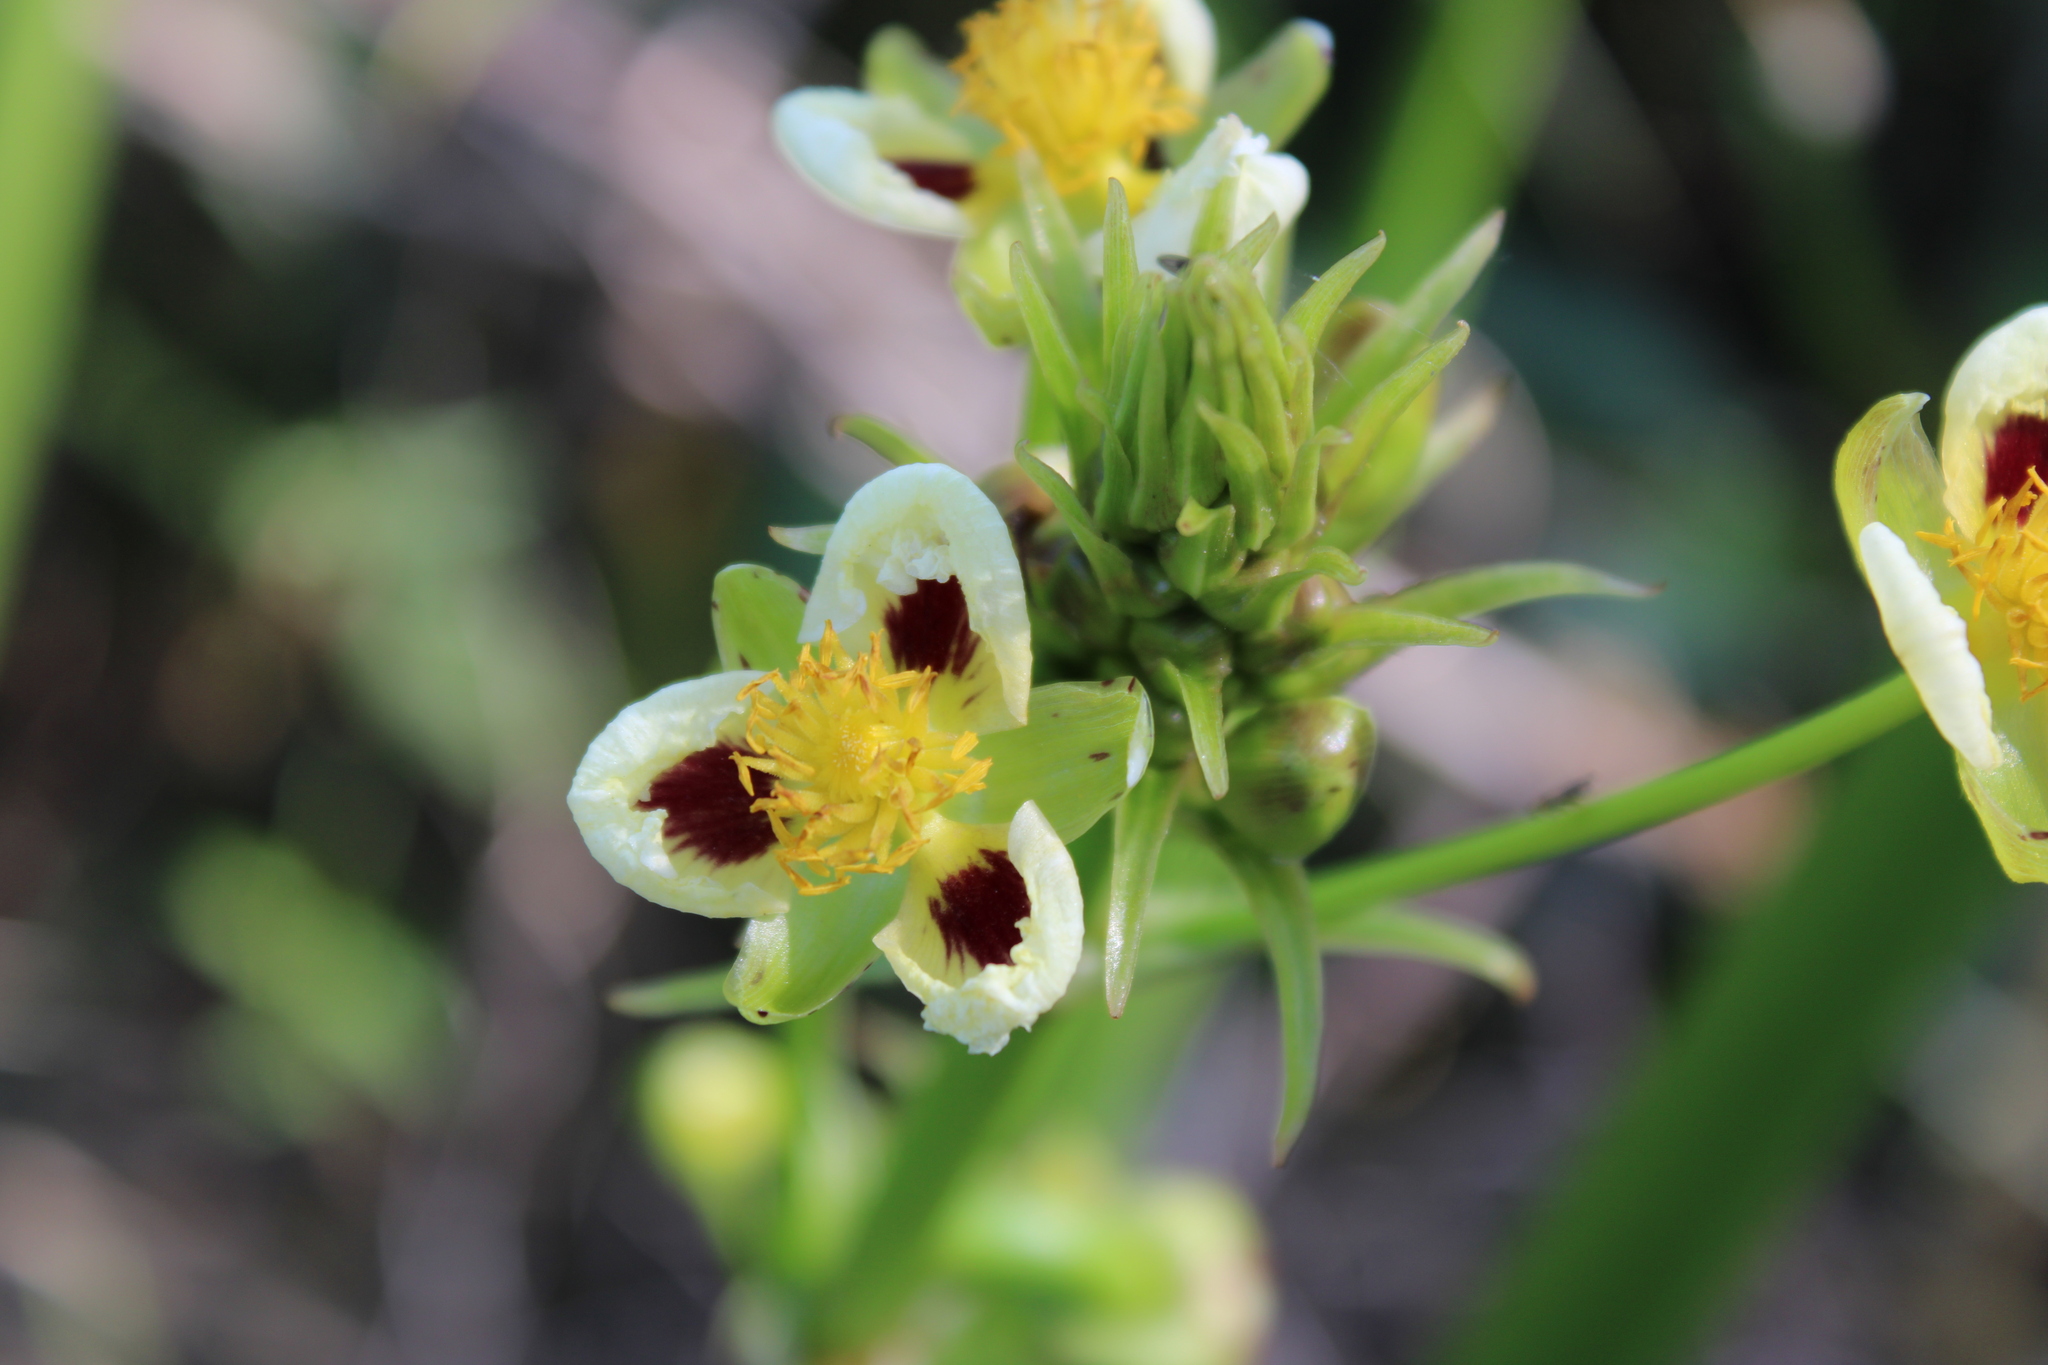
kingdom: Plantae
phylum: Tracheophyta
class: Liliopsida
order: Alismatales
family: Alismataceae
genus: Sagittaria
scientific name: Sagittaria montevidensis
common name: Giant arrowhead
